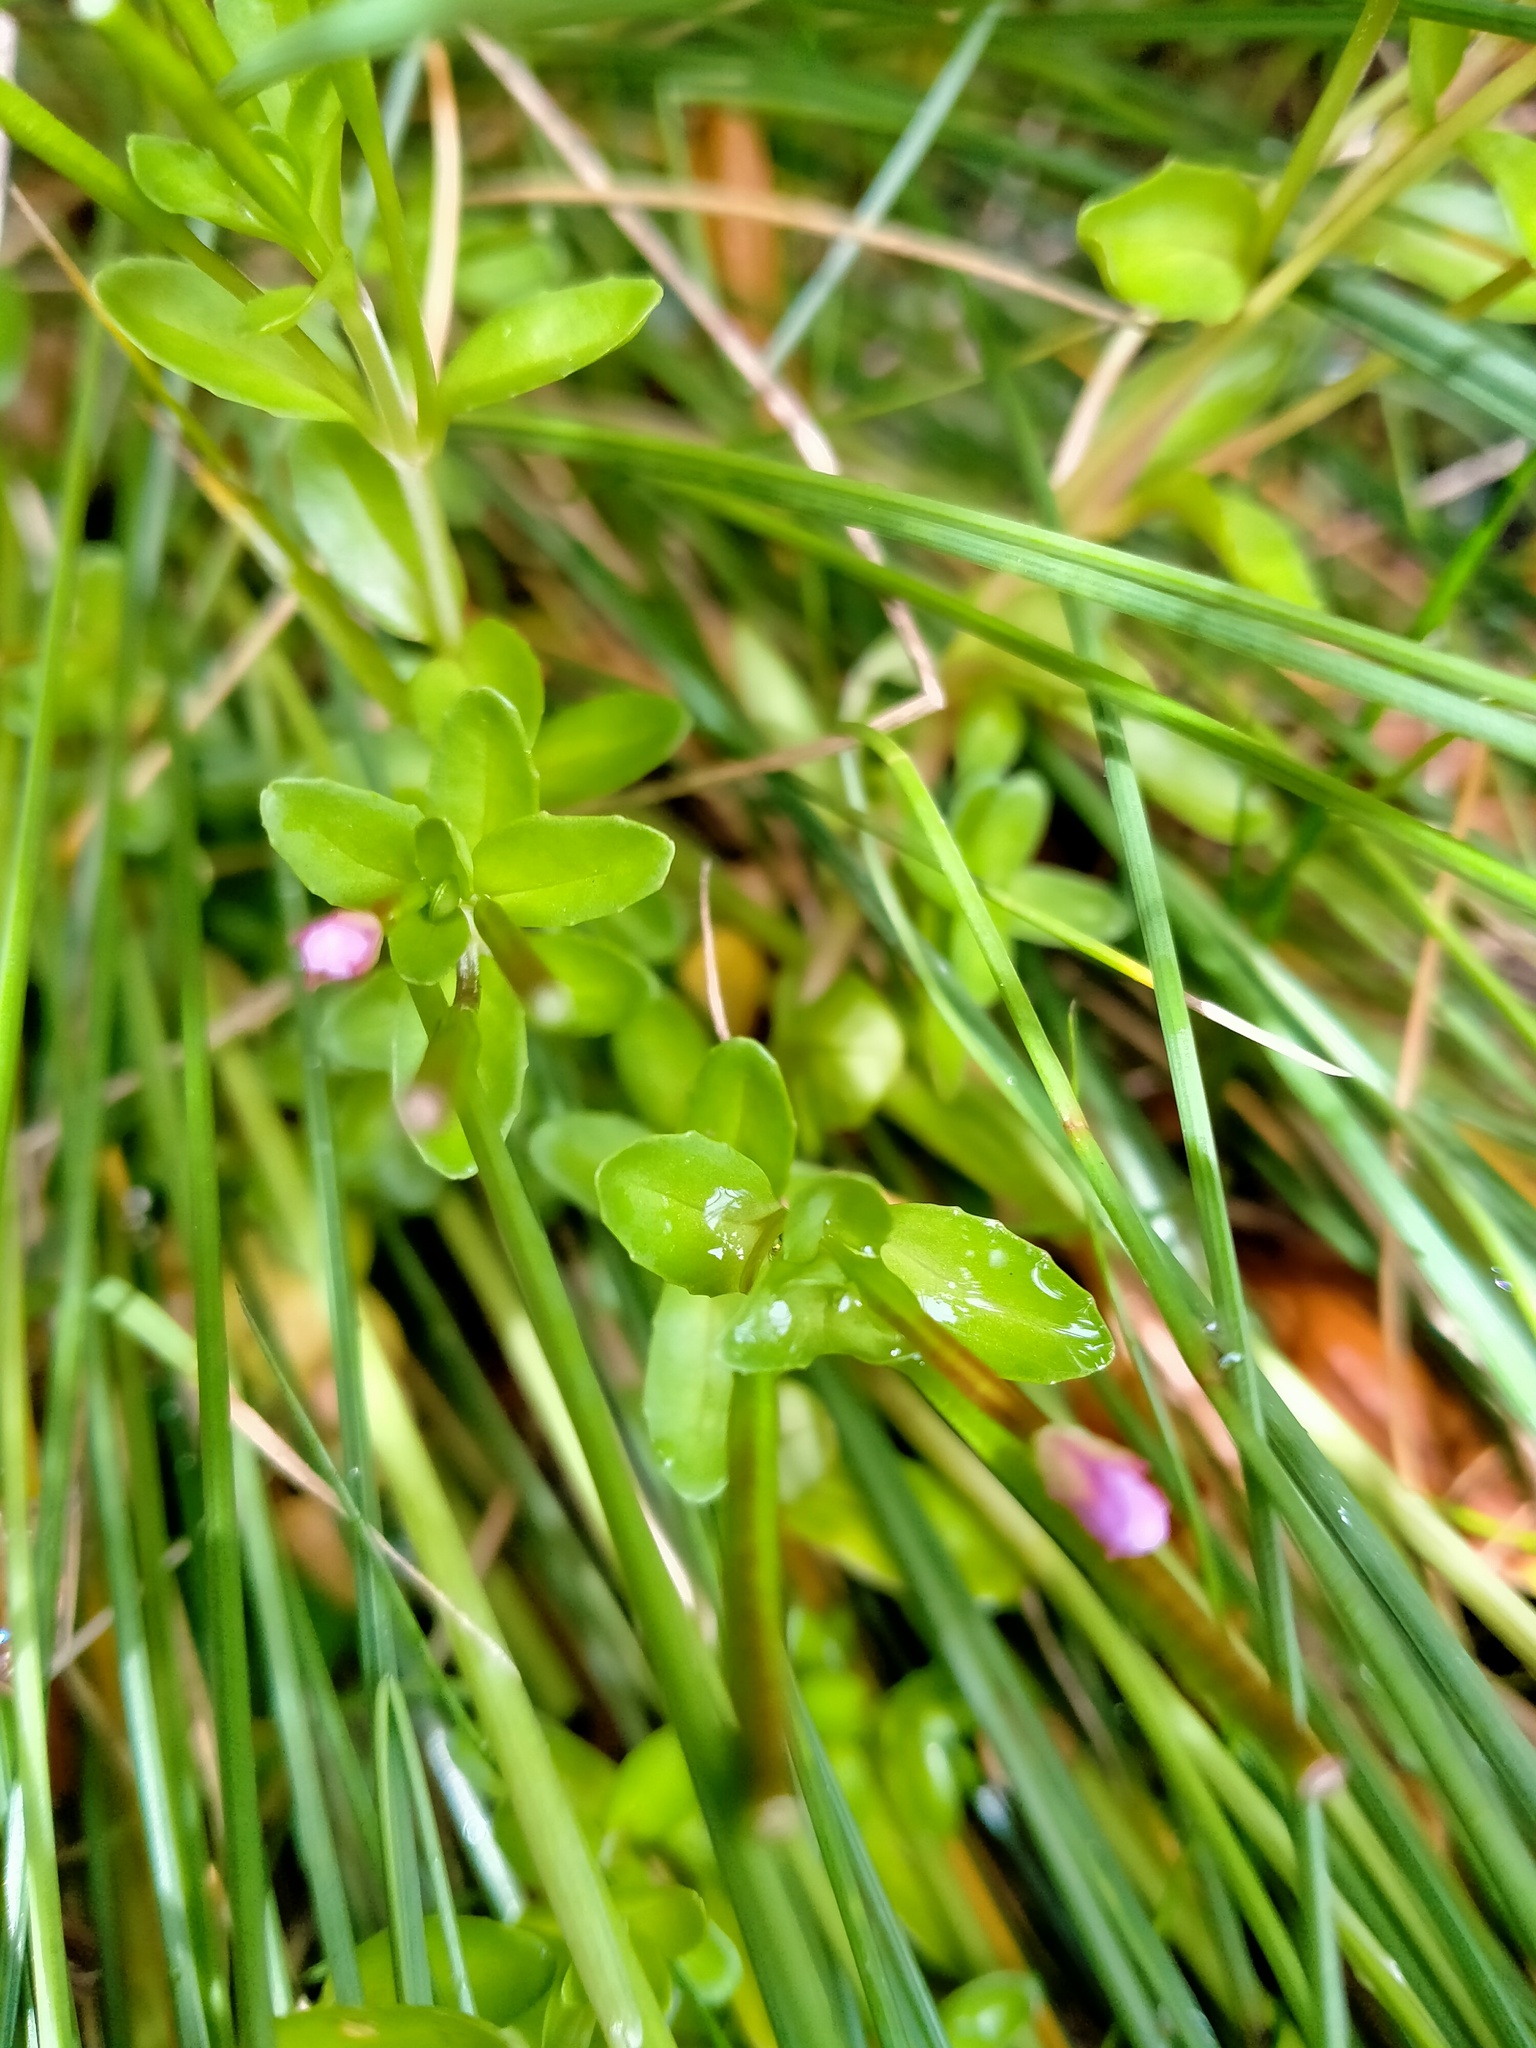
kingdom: Plantae
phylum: Tracheophyta
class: Magnoliopsida
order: Myrtales
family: Onagraceae
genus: Epilobium
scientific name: Epilobium confertifolium
